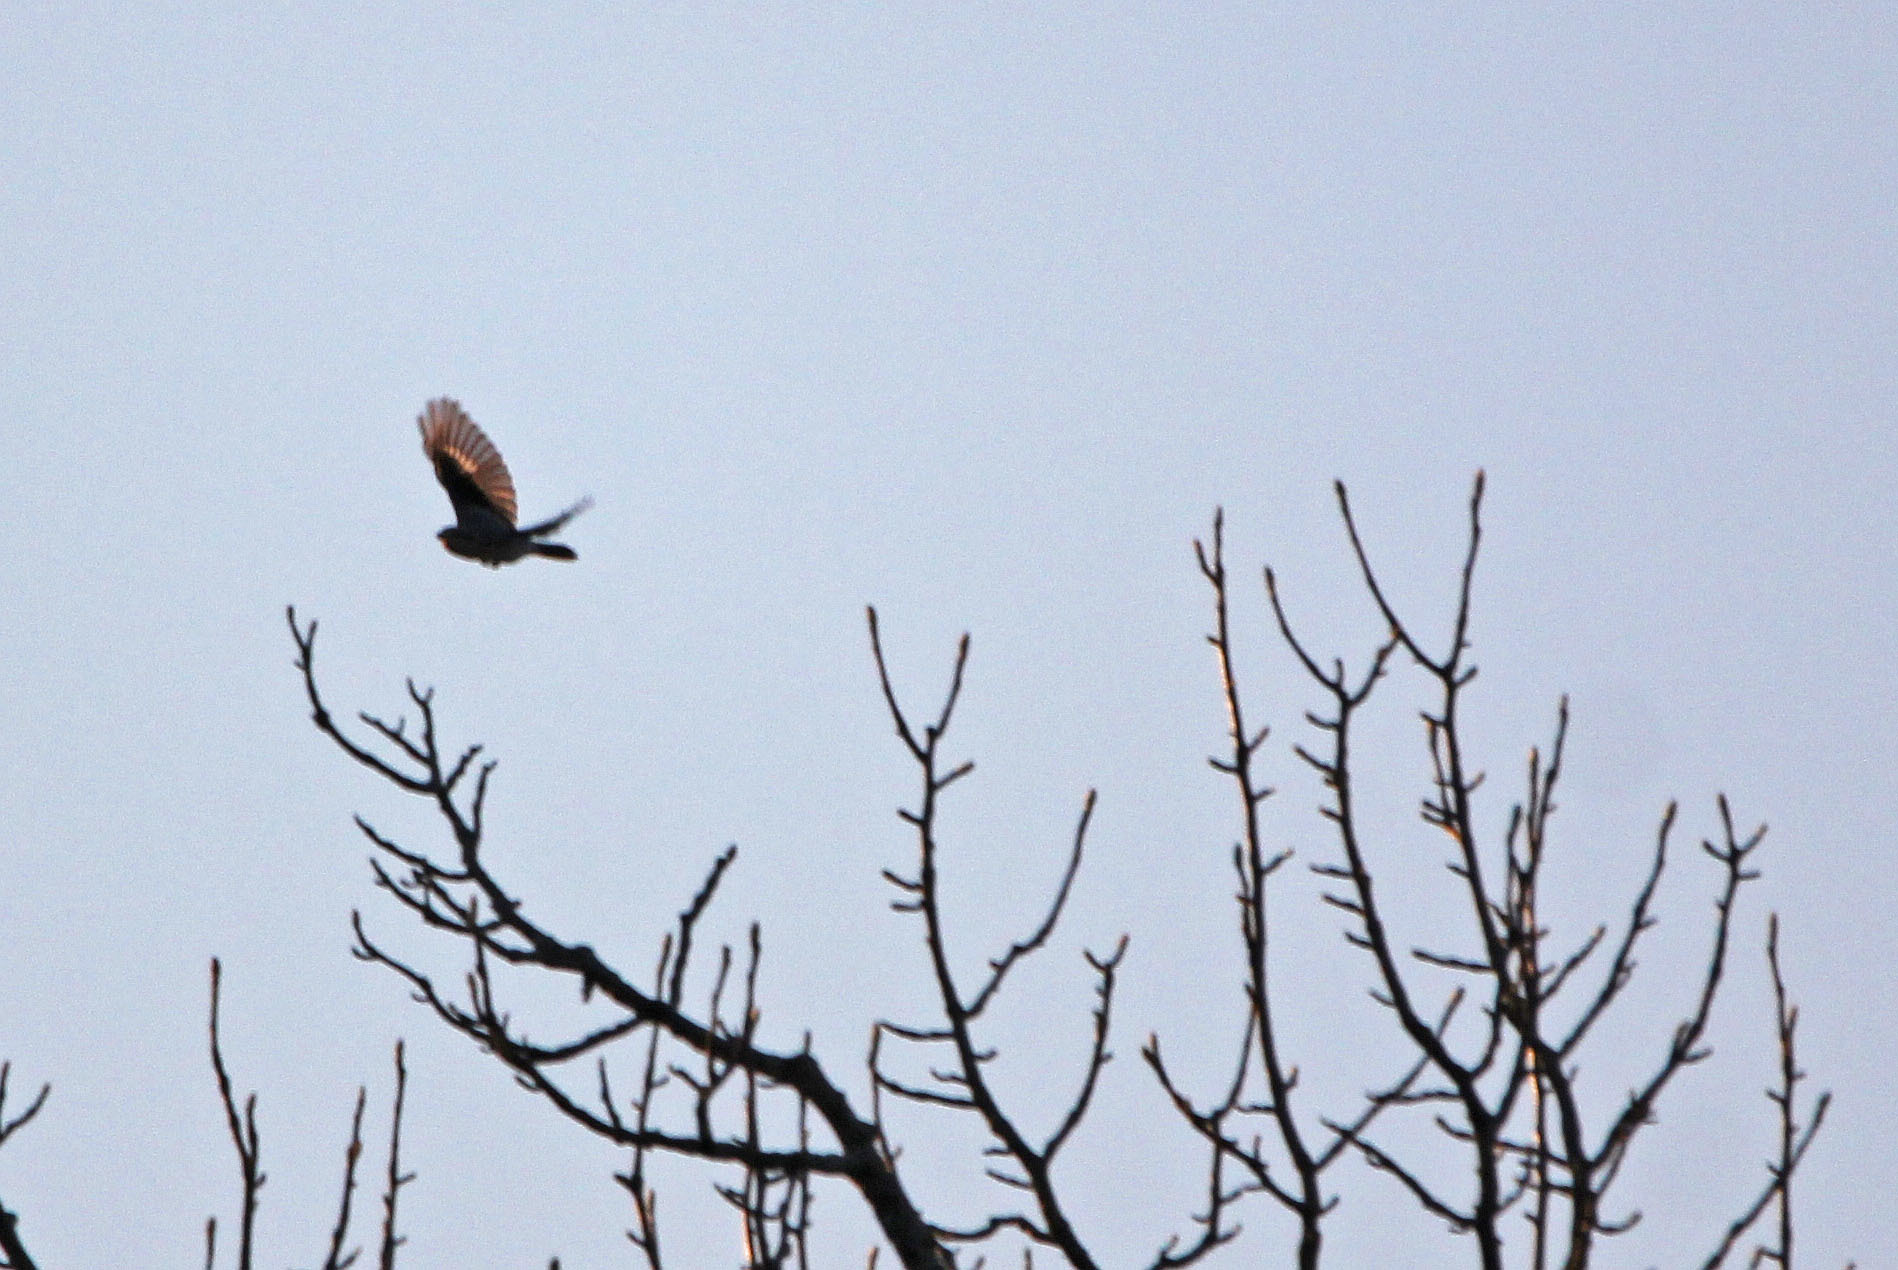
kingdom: Animalia
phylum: Chordata
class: Aves
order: Passeriformes
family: Laniidae
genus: Lanius
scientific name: Lanius borealis
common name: Northern shrike
